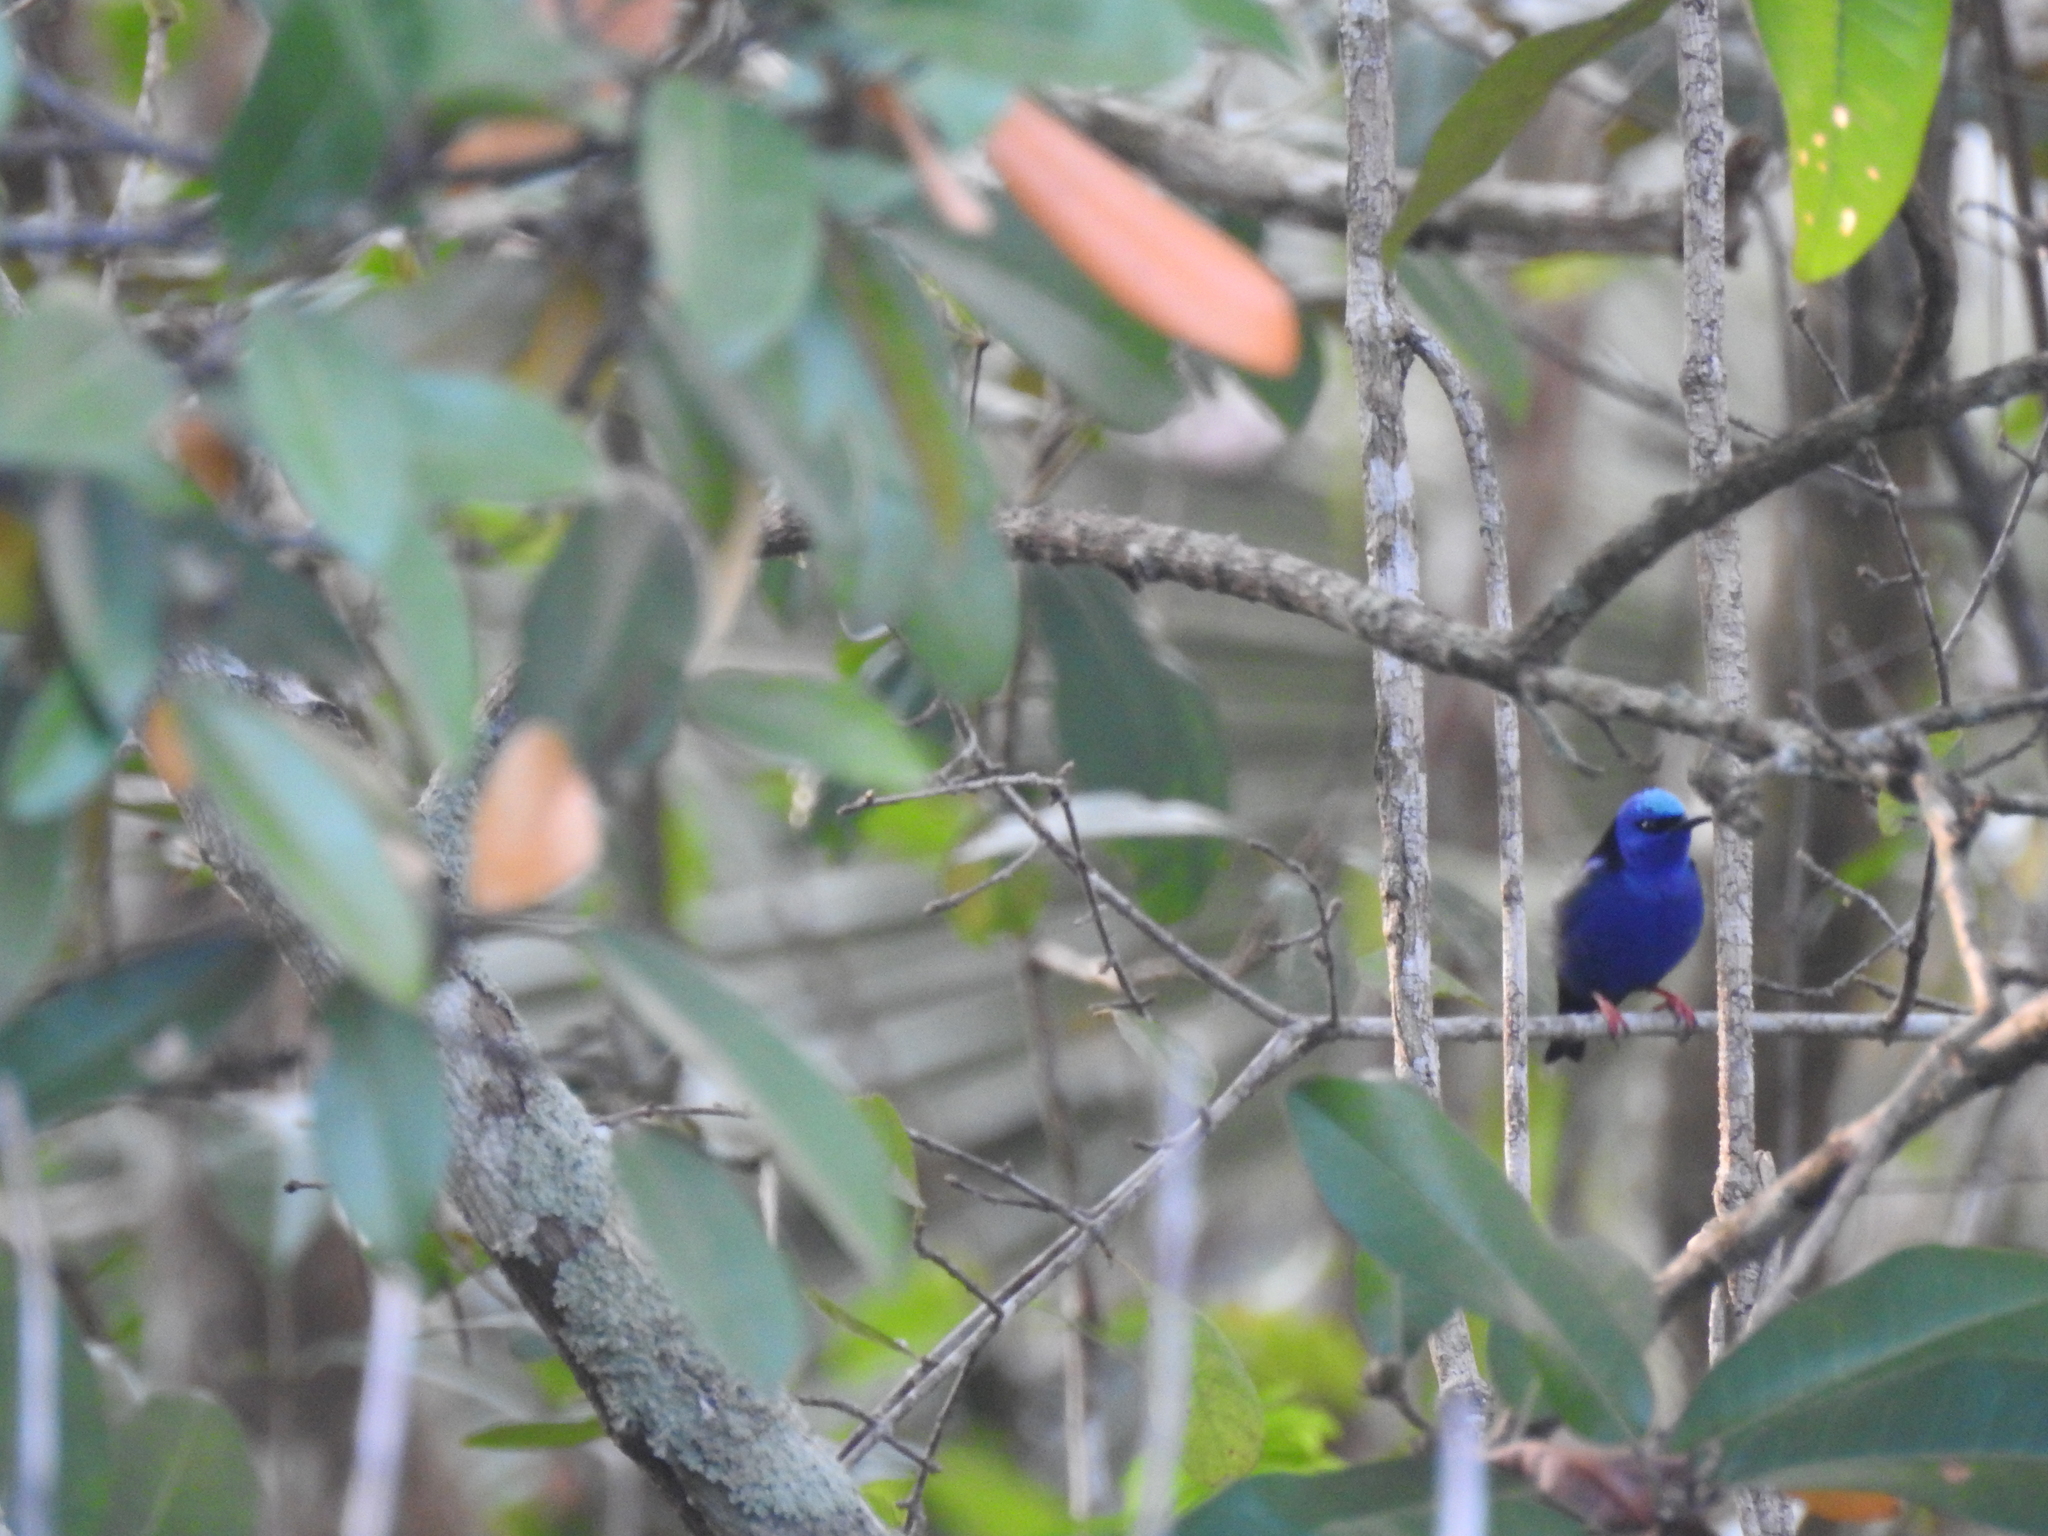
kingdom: Animalia
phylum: Chordata
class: Aves
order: Passeriformes
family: Thraupidae
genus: Cyanerpes
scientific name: Cyanerpes cyaneus
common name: Red-legged honeycreeper
